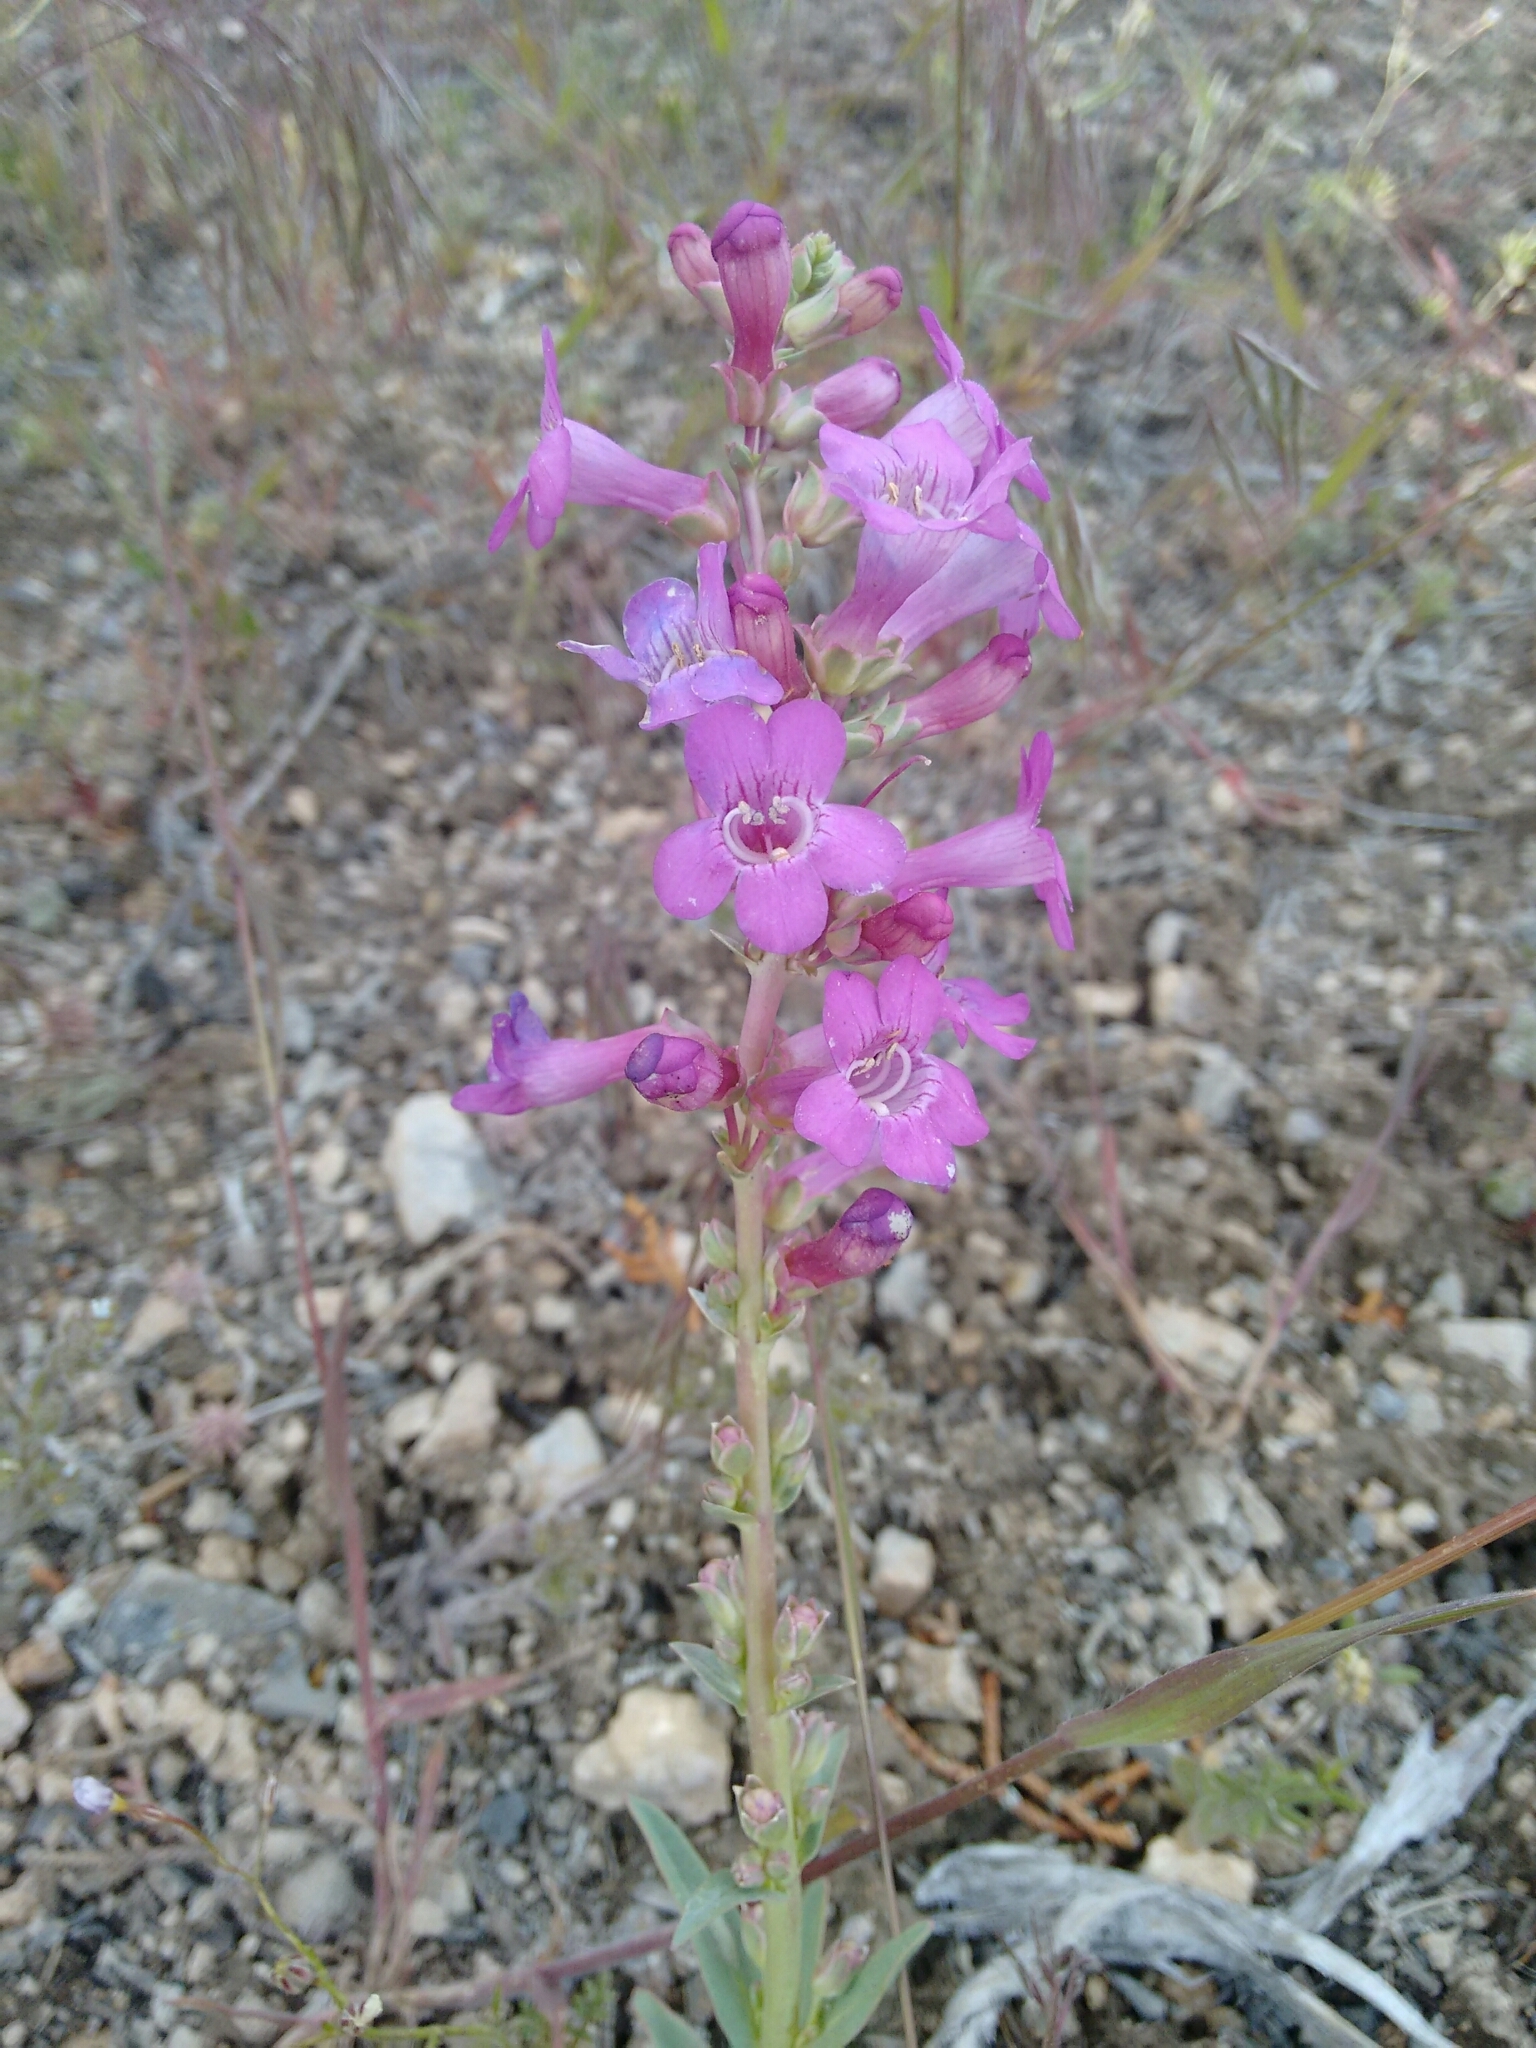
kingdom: Plantae
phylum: Tracheophyta
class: Magnoliopsida
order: Lamiales
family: Plantaginaceae
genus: Penstemon
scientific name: Penstemon confusus
